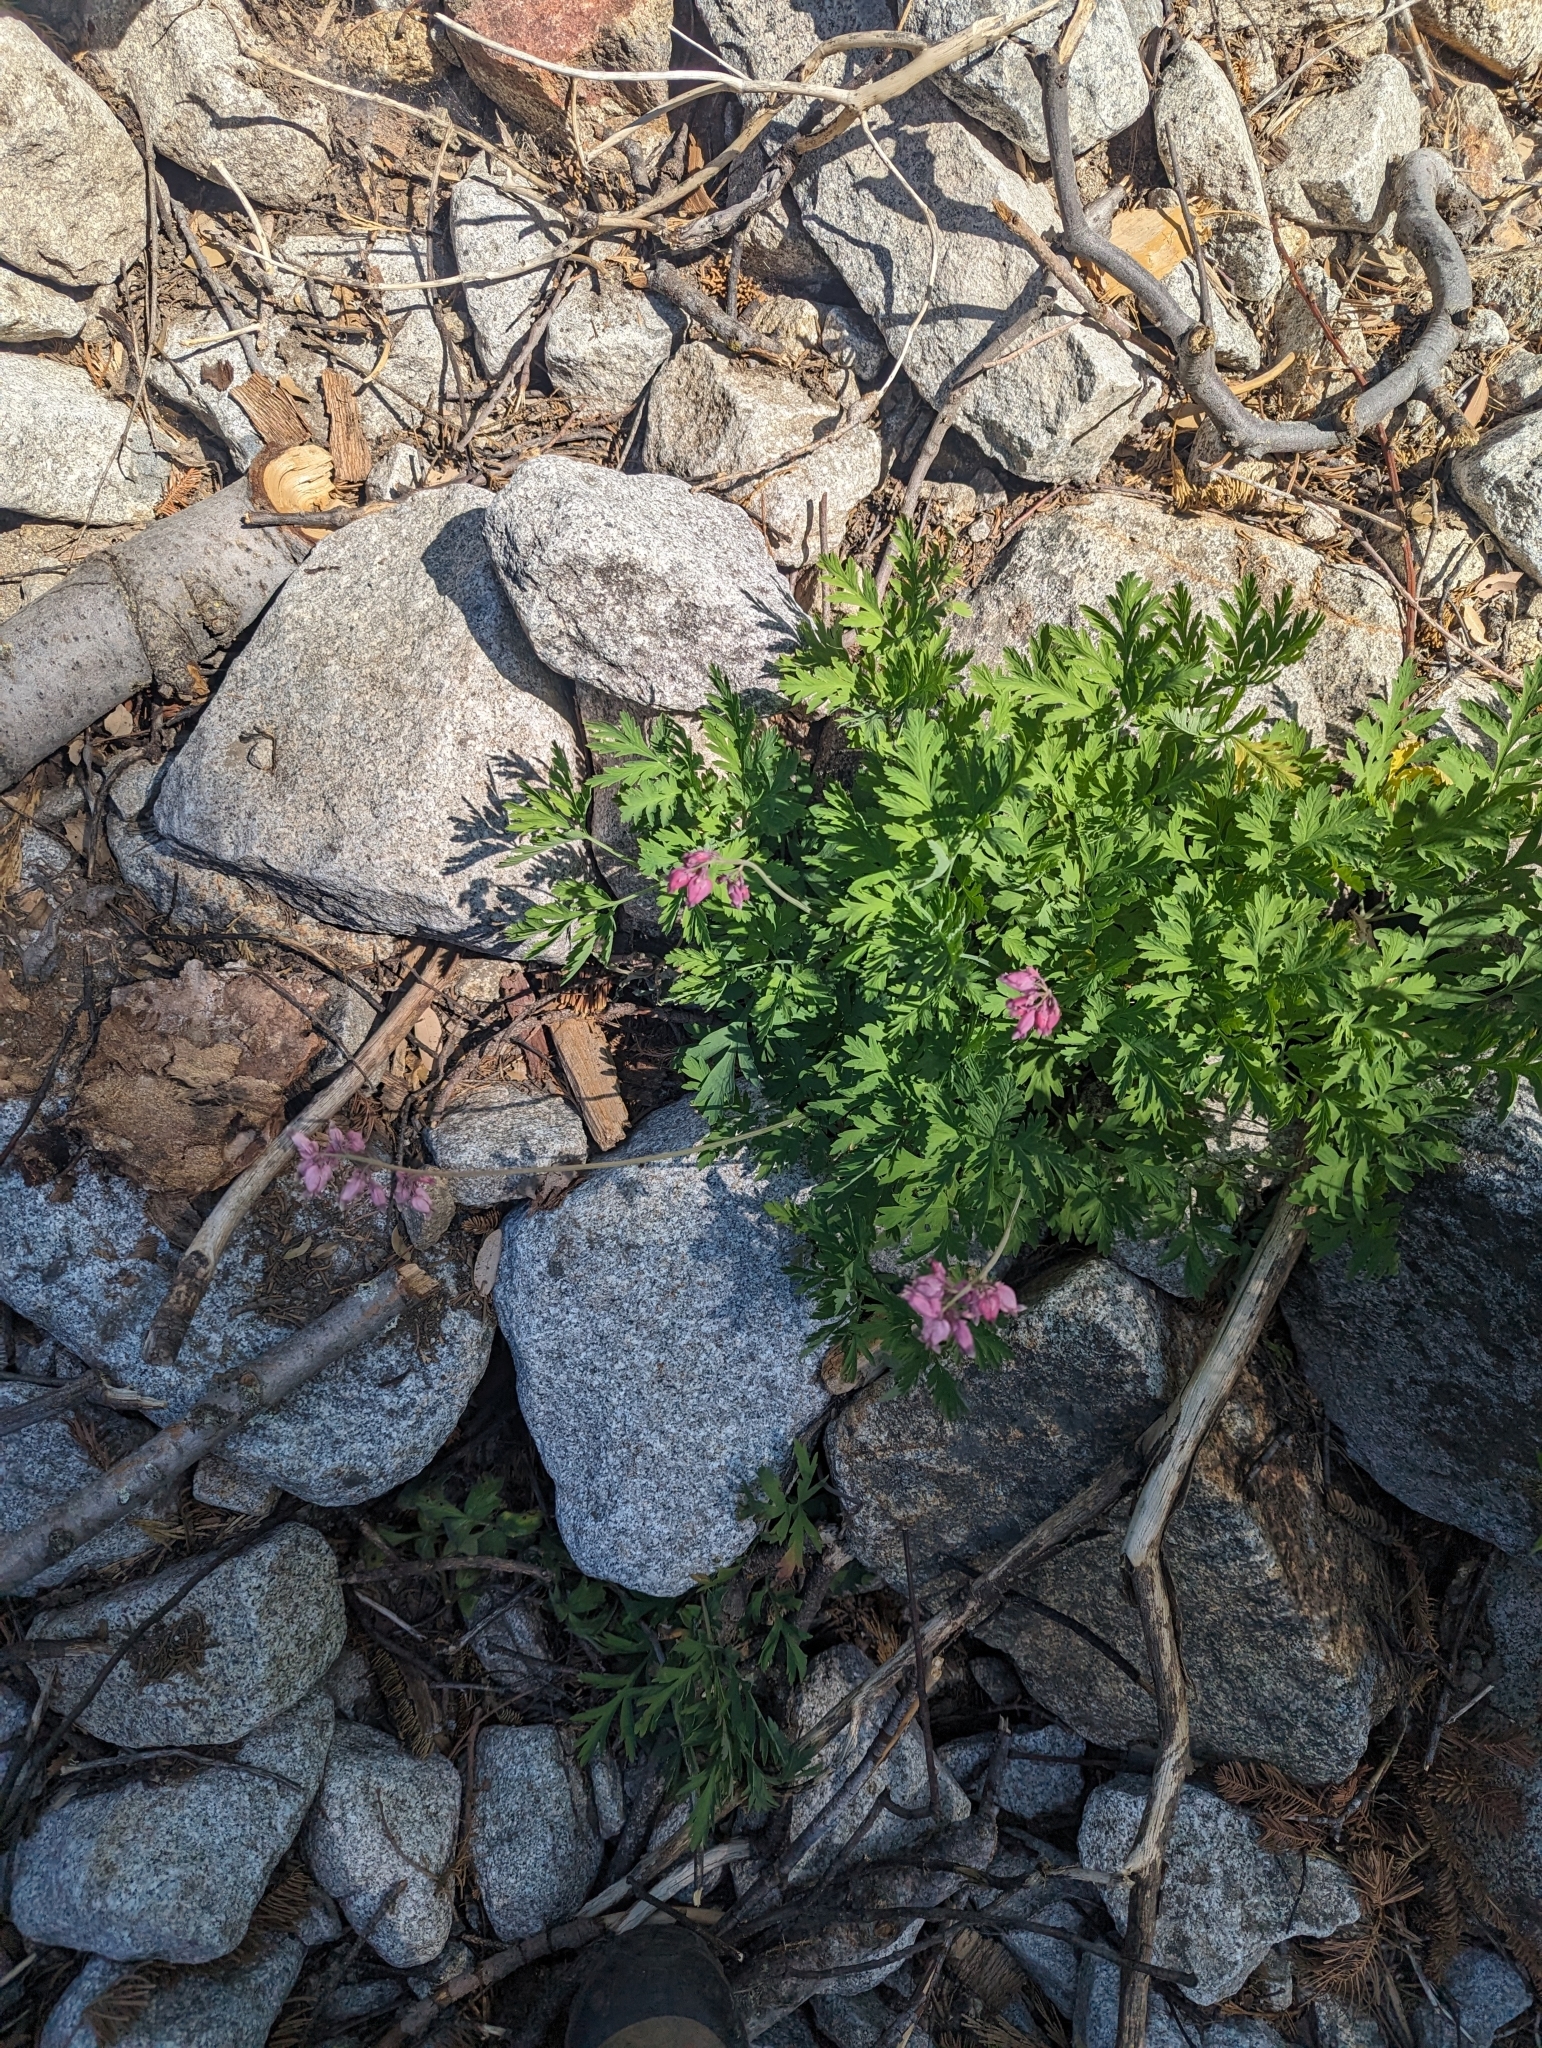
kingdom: Plantae
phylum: Tracheophyta
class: Magnoliopsida
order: Ranunculales
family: Papaveraceae
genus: Dicentra
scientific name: Dicentra formosa
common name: Bleeding-heart
